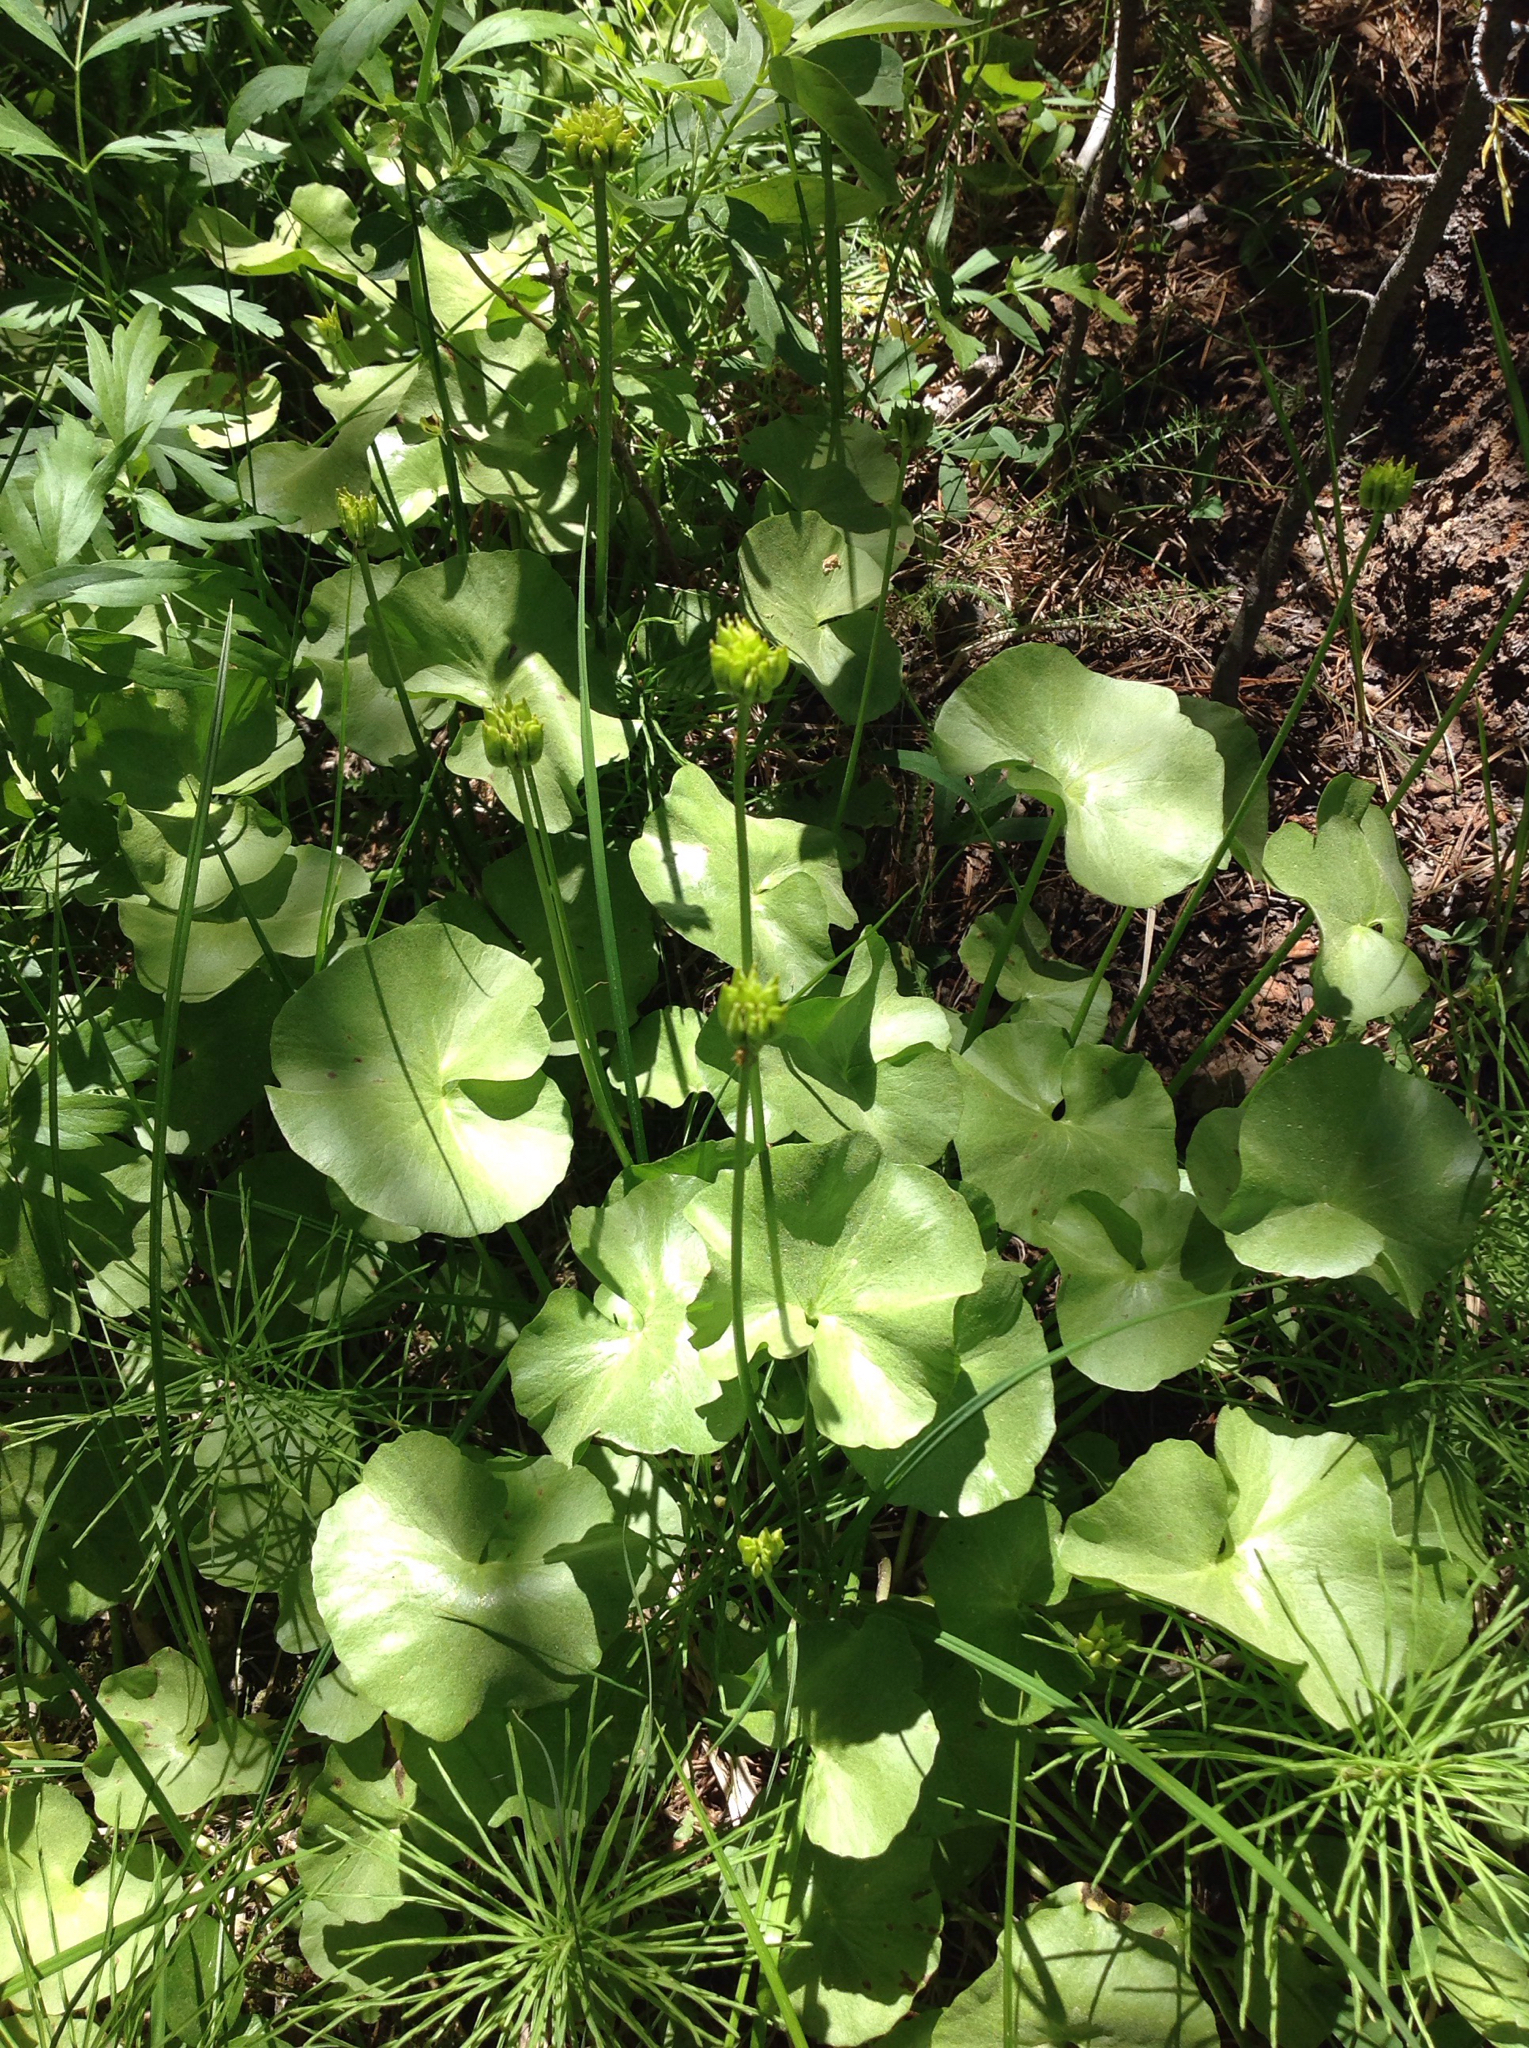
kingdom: Plantae
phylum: Tracheophyta
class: Magnoliopsida
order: Ranunculales
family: Ranunculaceae
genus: Caltha
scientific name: Caltha leptosepala
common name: Elkslip
